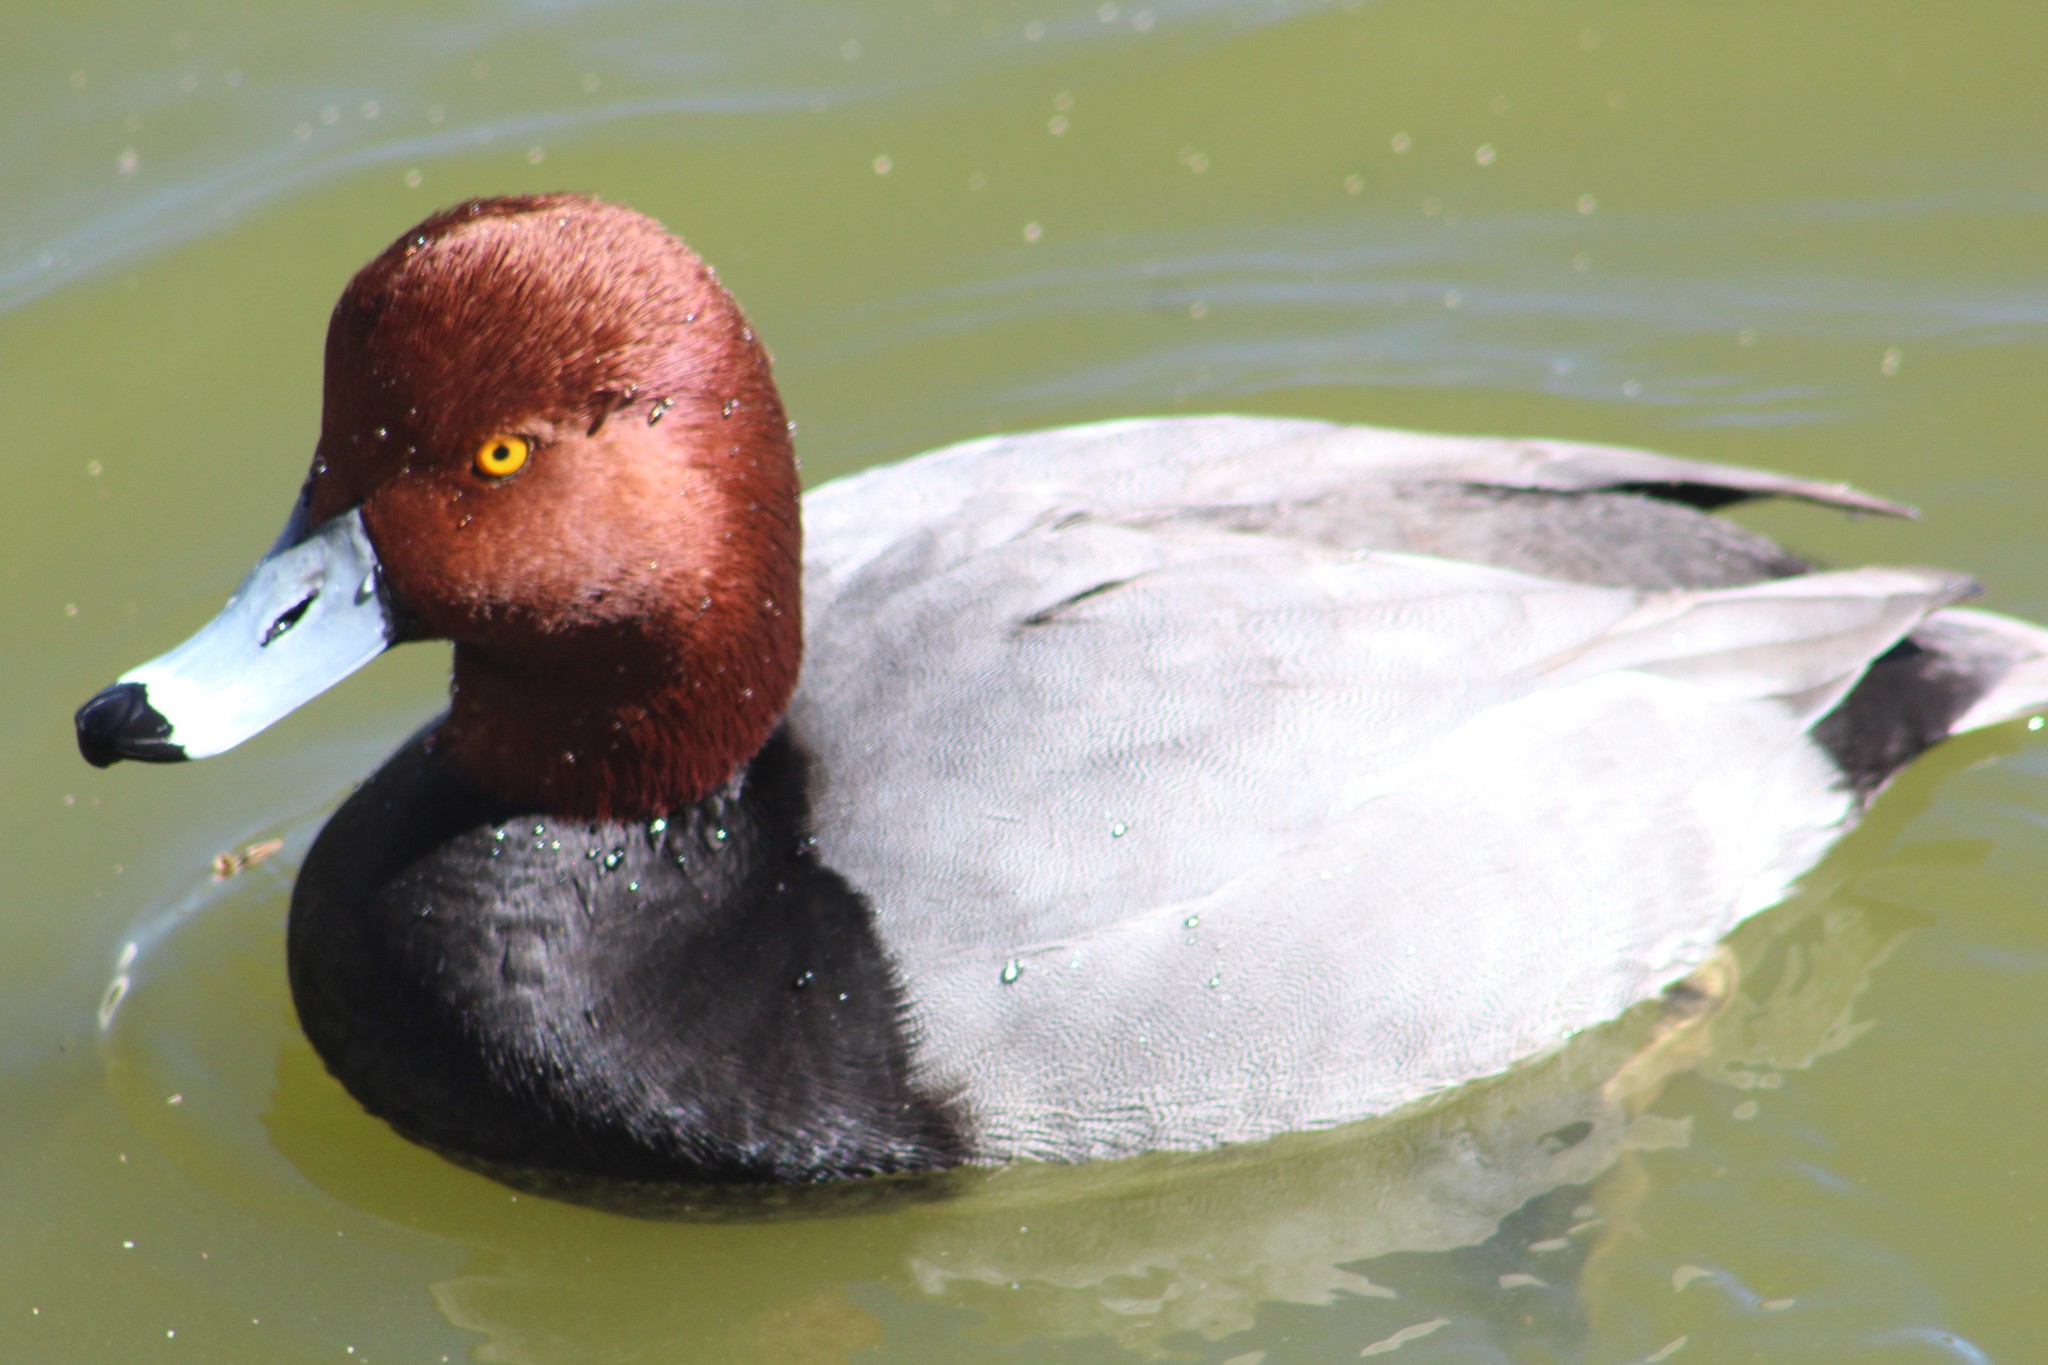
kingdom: Animalia
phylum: Chordata
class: Aves
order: Anseriformes
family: Anatidae
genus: Aythya
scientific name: Aythya americana
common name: Redhead
